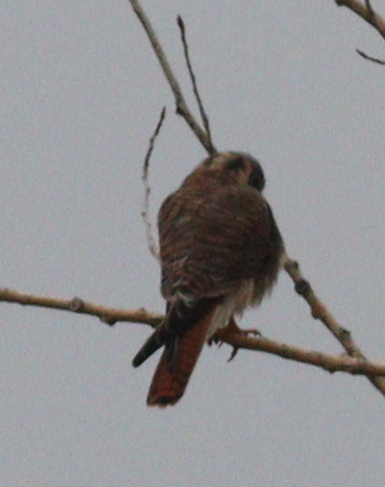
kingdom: Animalia
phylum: Chordata
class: Aves
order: Falconiformes
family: Falconidae
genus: Falco
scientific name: Falco sparverius
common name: American kestrel
